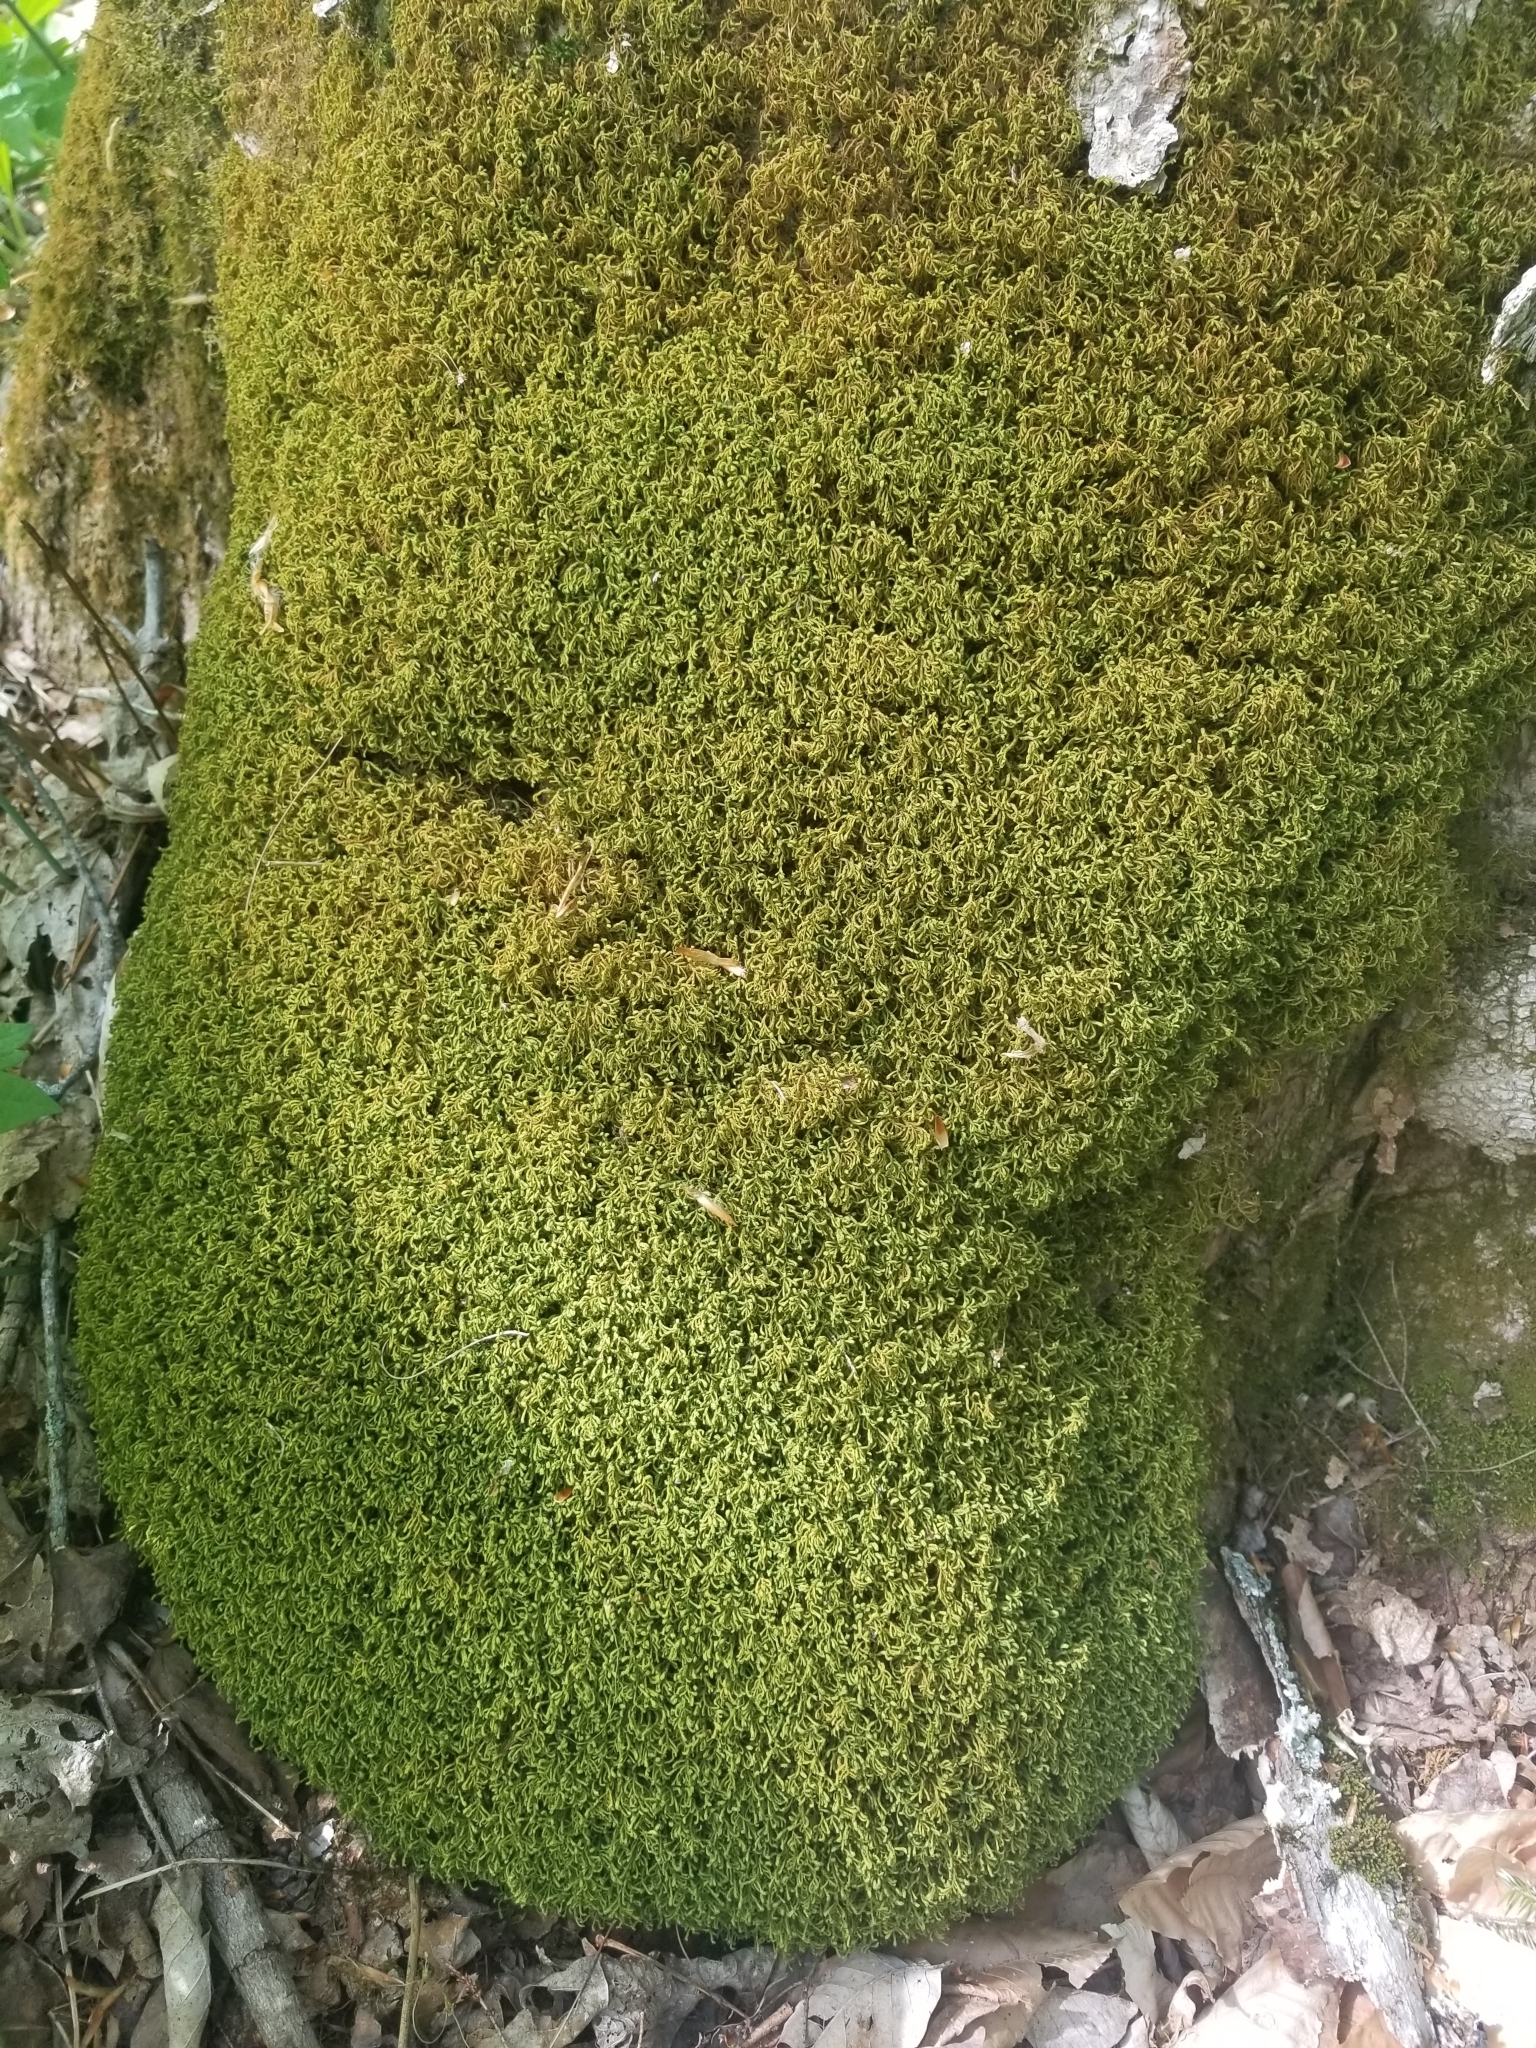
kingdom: Plantae
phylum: Bryophyta
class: Bryopsida
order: Hypnales
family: Neckeraceae
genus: Pseudanomodon
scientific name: Pseudanomodon attenuatus
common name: Tree-skirt moss
